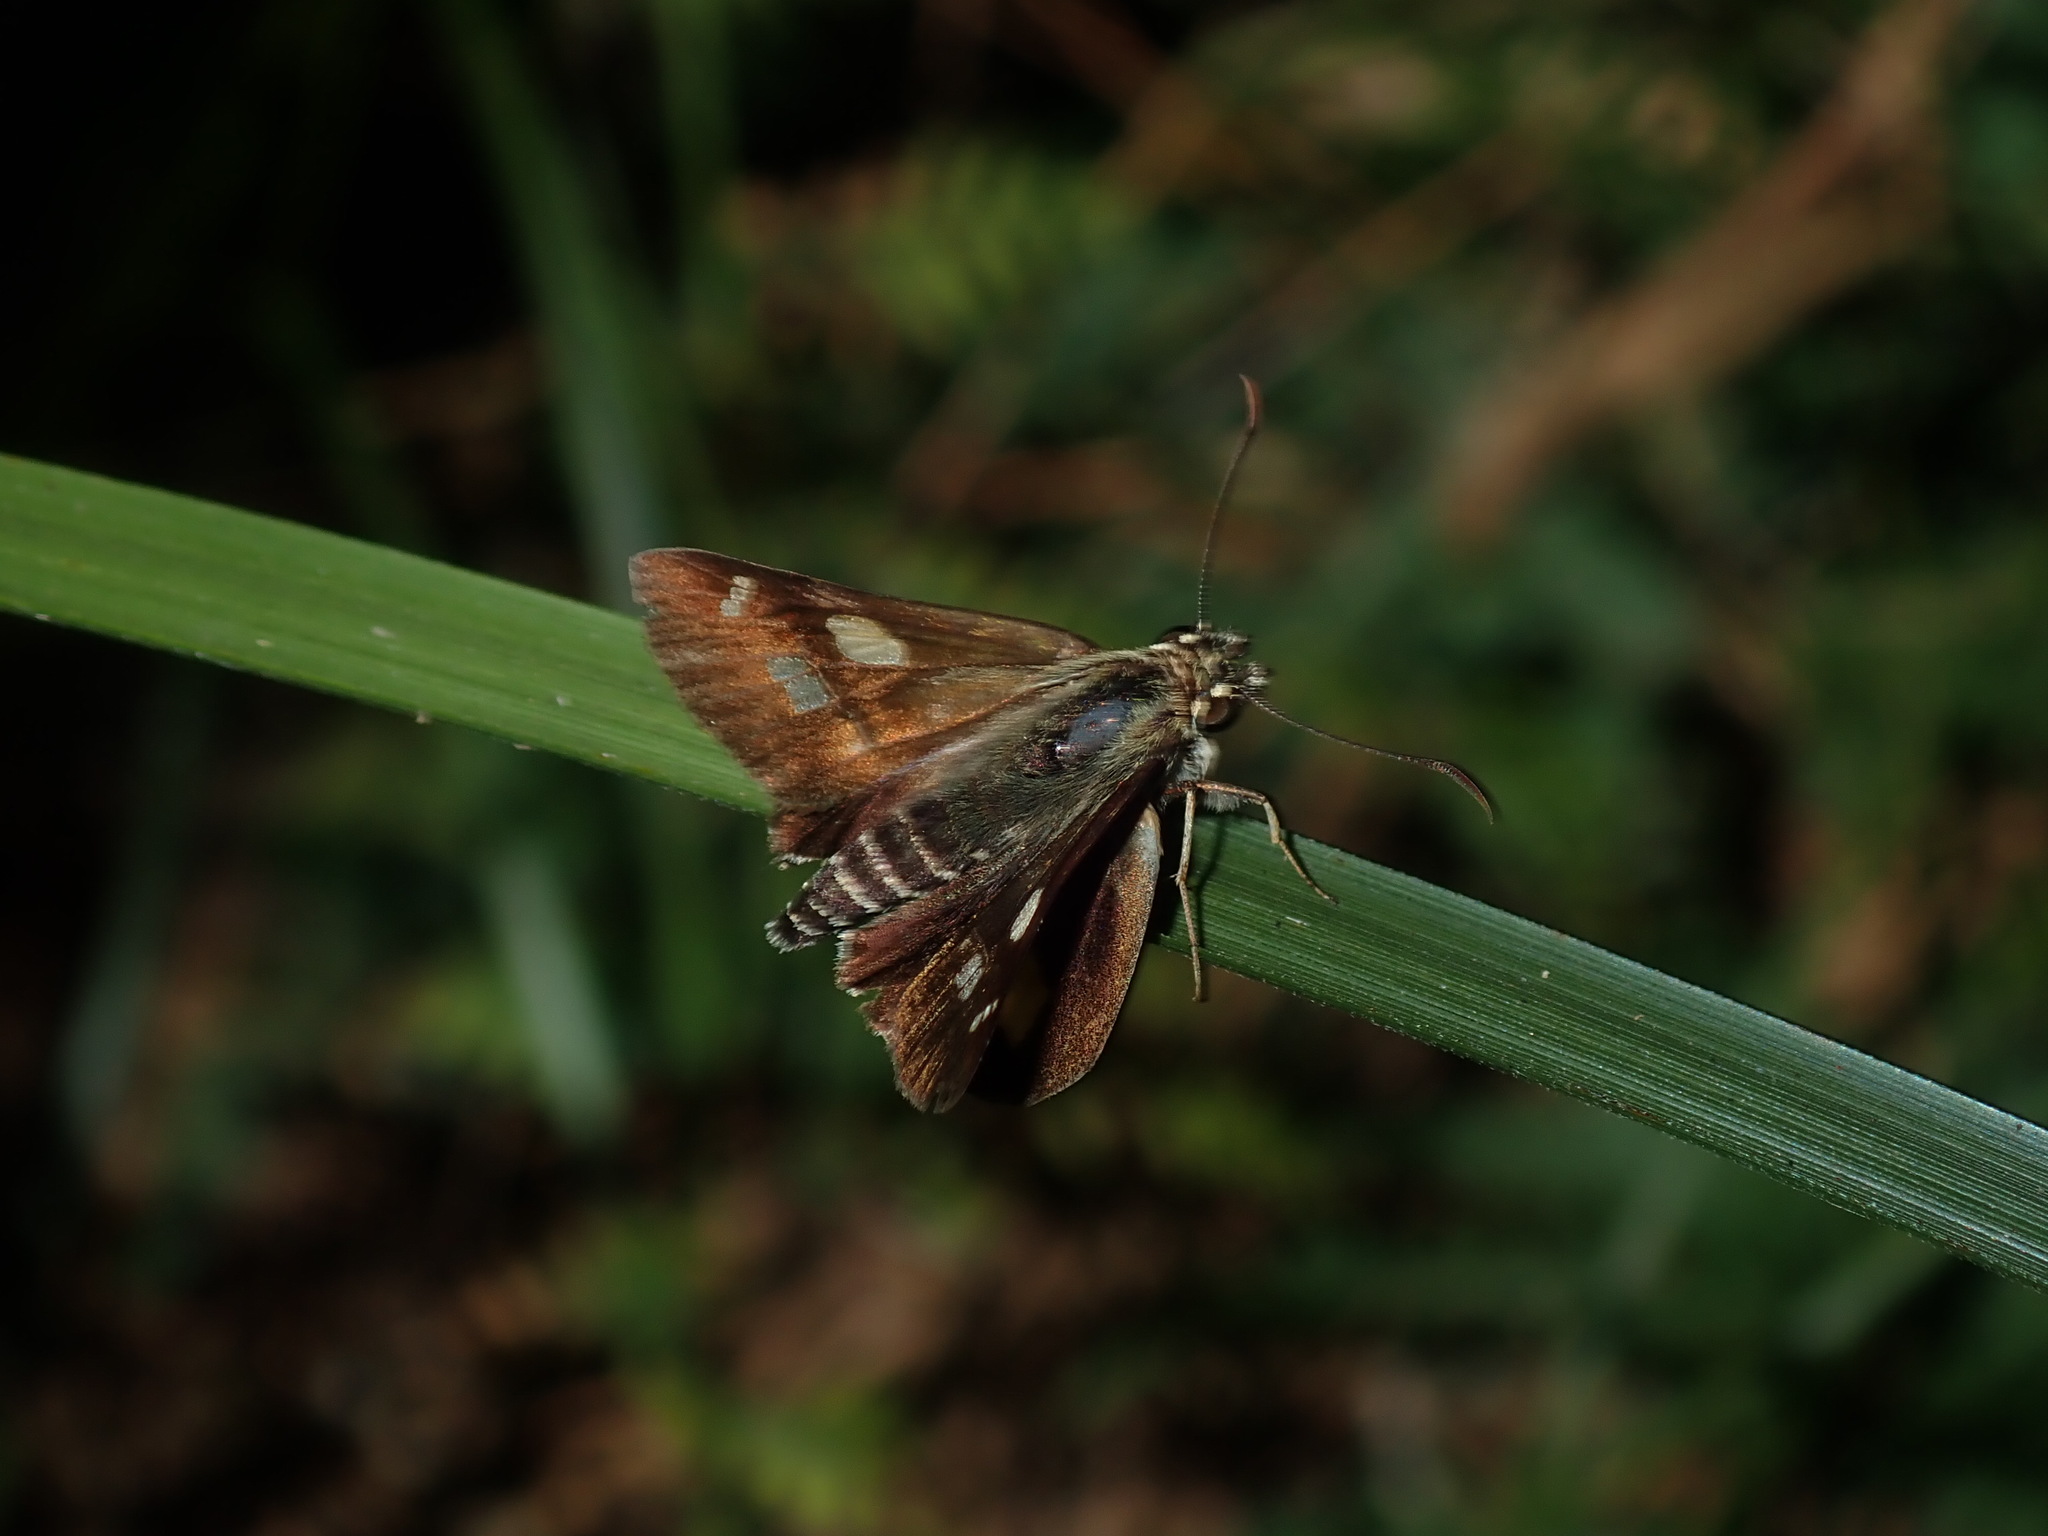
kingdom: Animalia
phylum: Arthropoda
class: Insecta
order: Lepidoptera
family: Hesperiidae
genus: Hesperilla
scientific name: Hesperilla picta
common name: Painted sedge-skipper
